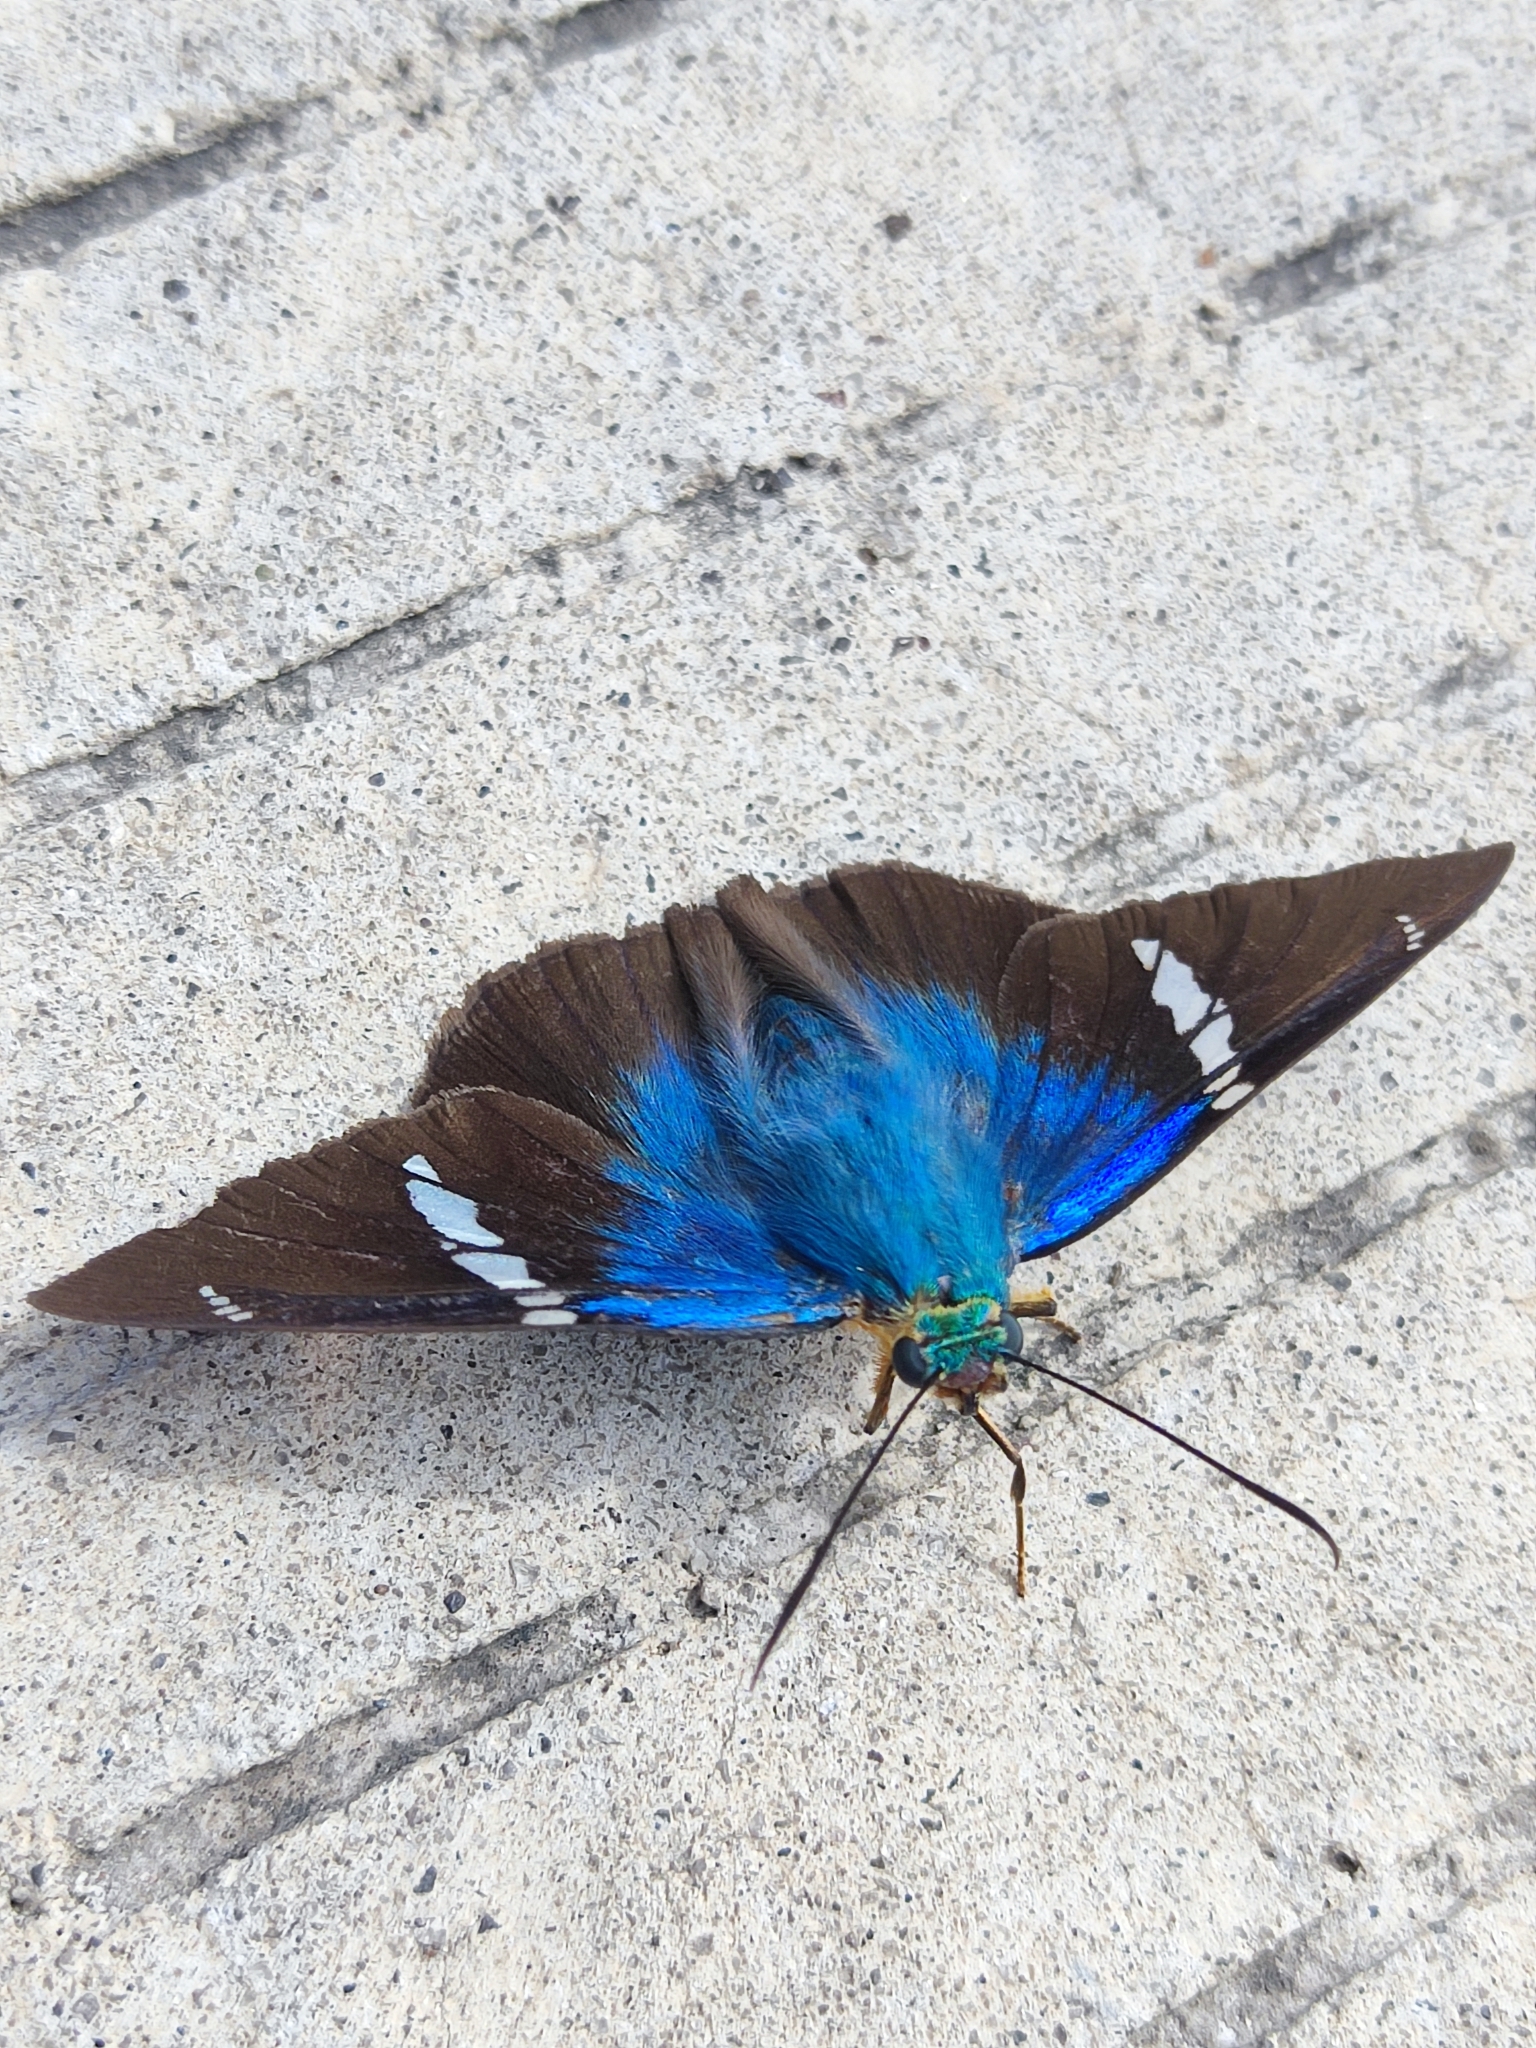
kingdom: Animalia
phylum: Arthropoda
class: Insecta
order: Lepidoptera
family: Hesperiidae
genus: Astraptes
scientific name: Astraptes fulgerator
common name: Two-barred flasher
